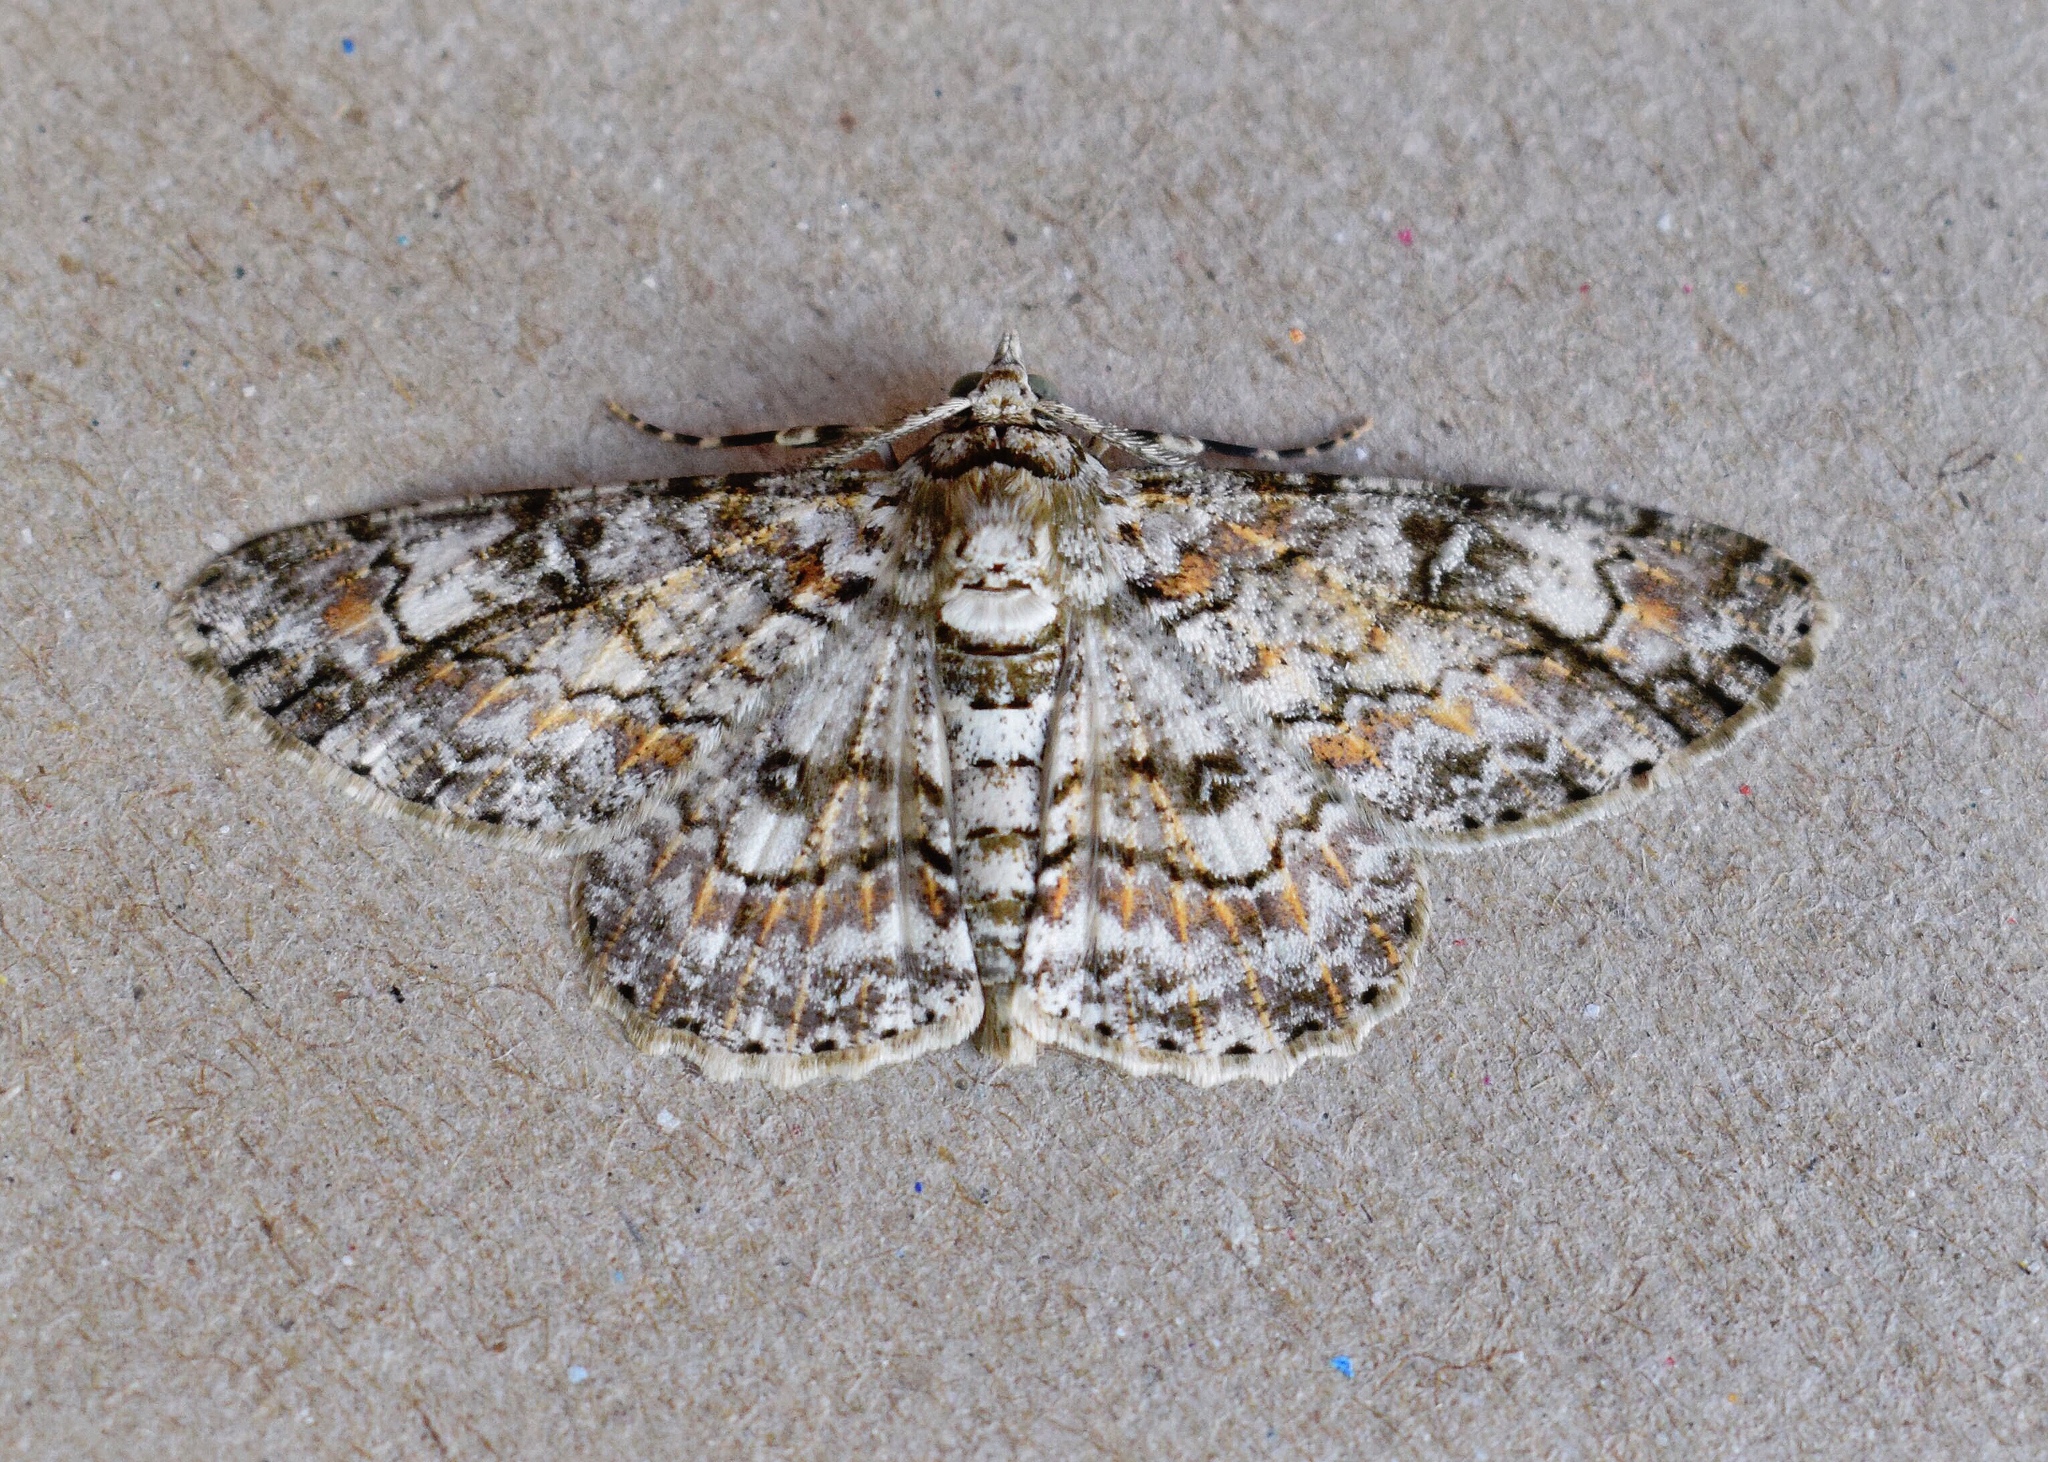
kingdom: Animalia
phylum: Arthropoda
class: Insecta
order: Lepidoptera
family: Geometridae
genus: Cleora
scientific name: Cleora rothkirchi
